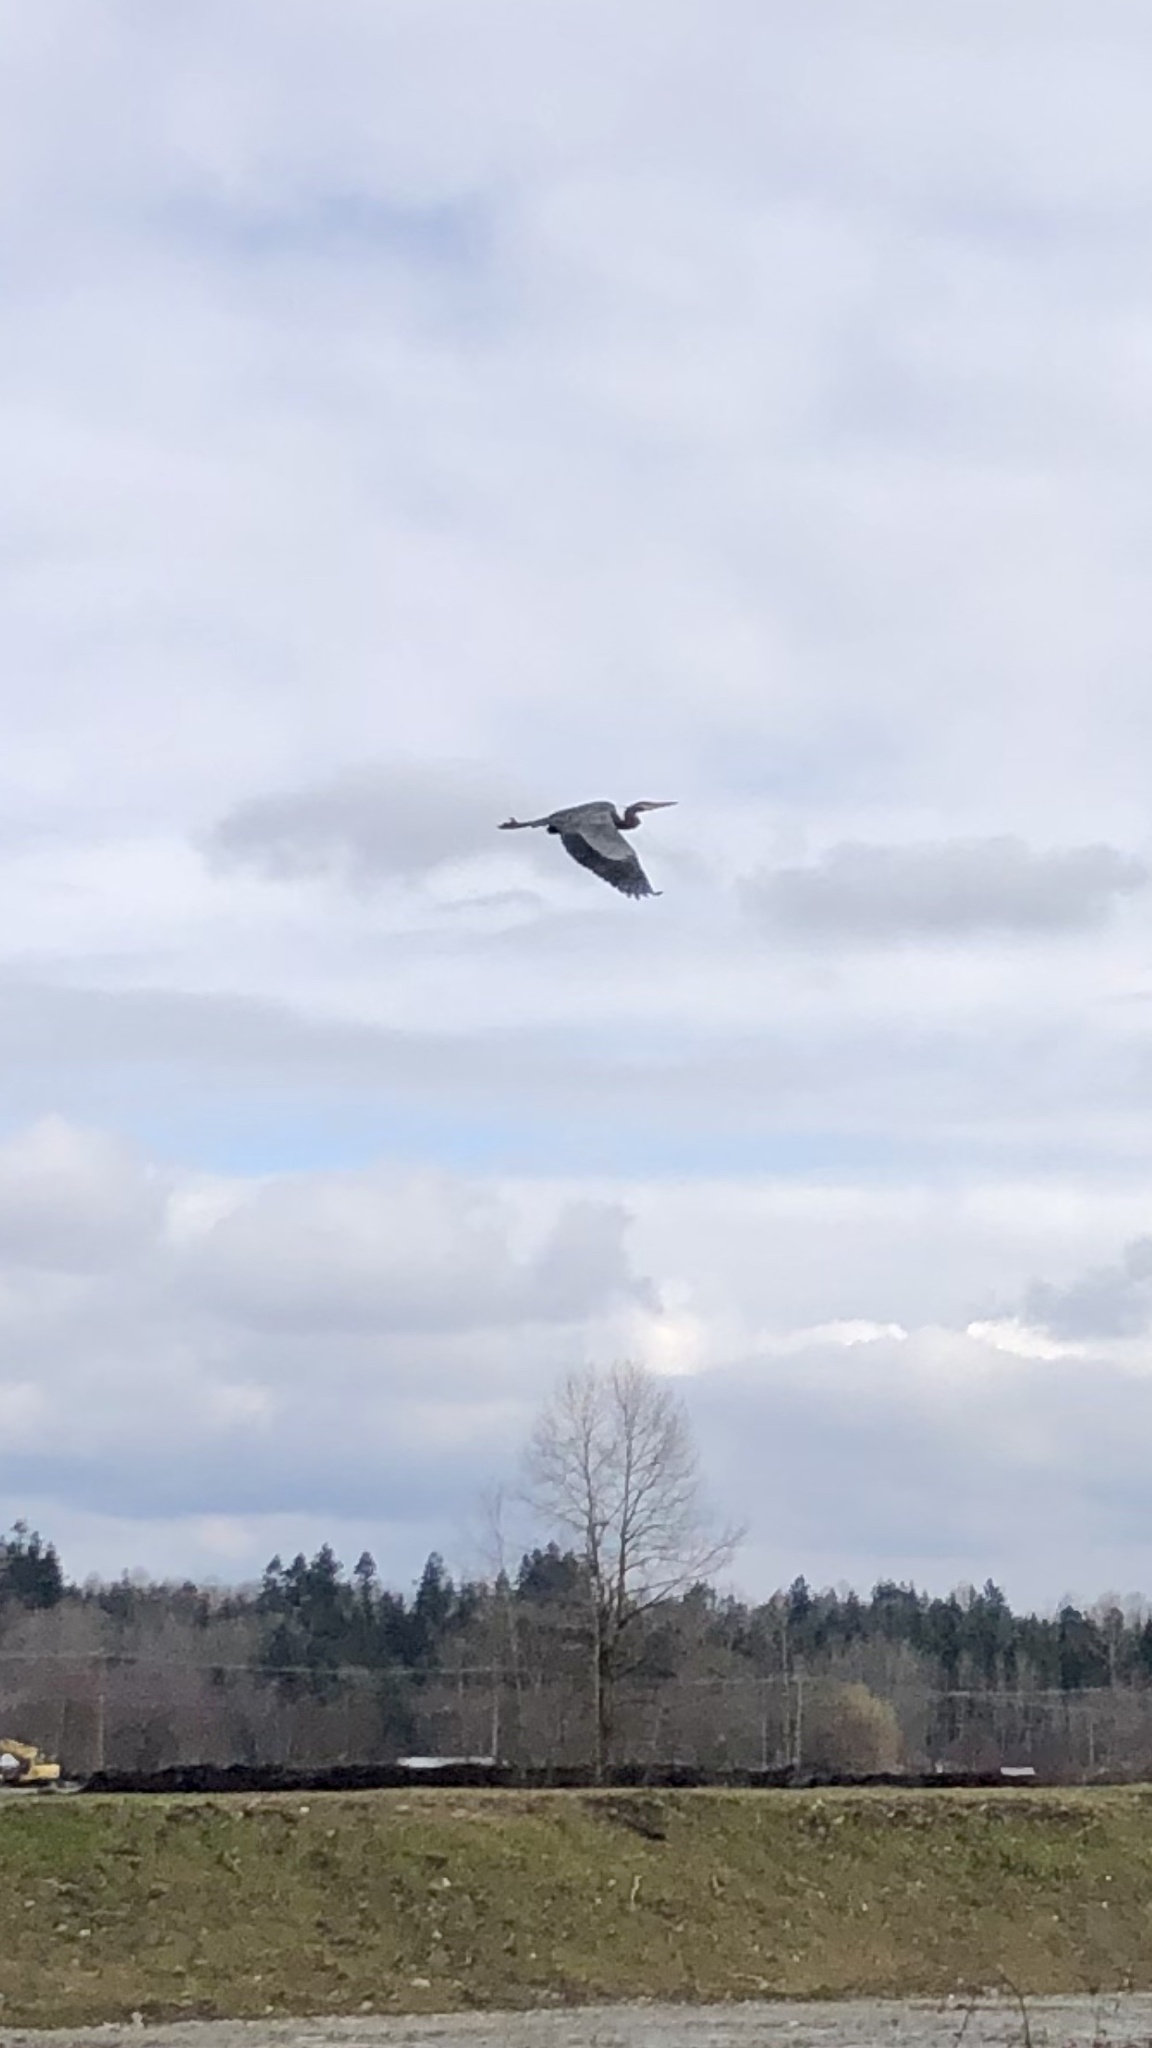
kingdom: Animalia
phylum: Chordata
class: Aves
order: Pelecaniformes
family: Ardeidae
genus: Ardea
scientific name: Ardea herodias
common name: Great blue heron
